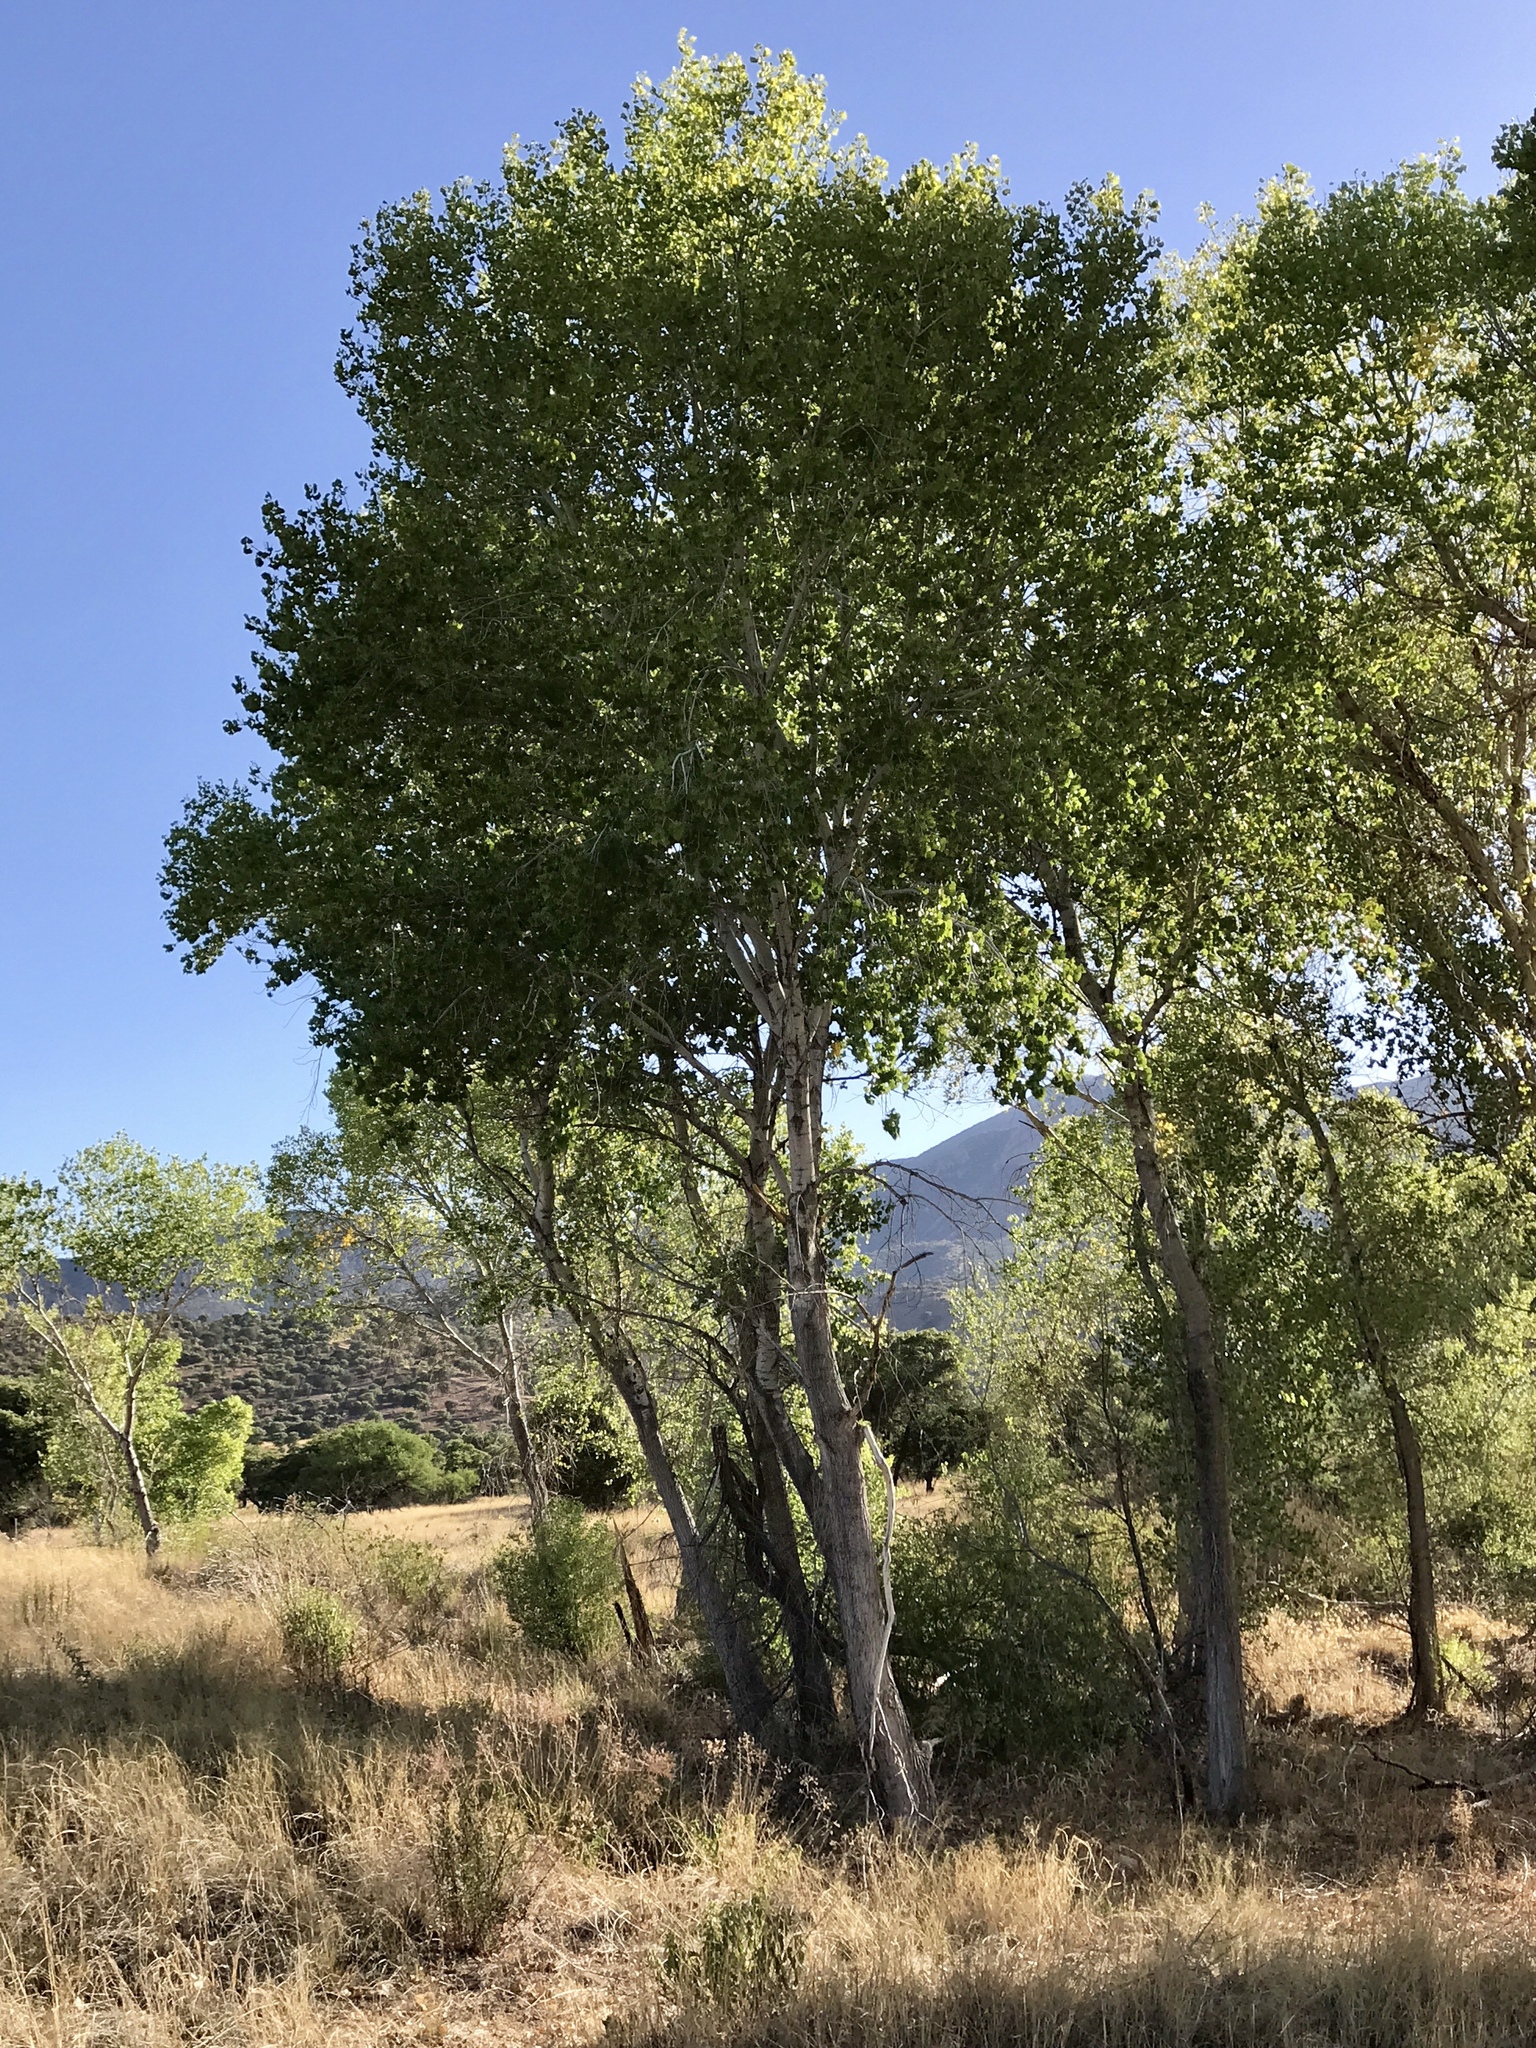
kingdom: Plantae
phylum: Tracheophyta
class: Magnoliopsida
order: Malpighiales
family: Salicaceae
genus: Populus
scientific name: Populus fremontii
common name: Fremont's cottonwood
